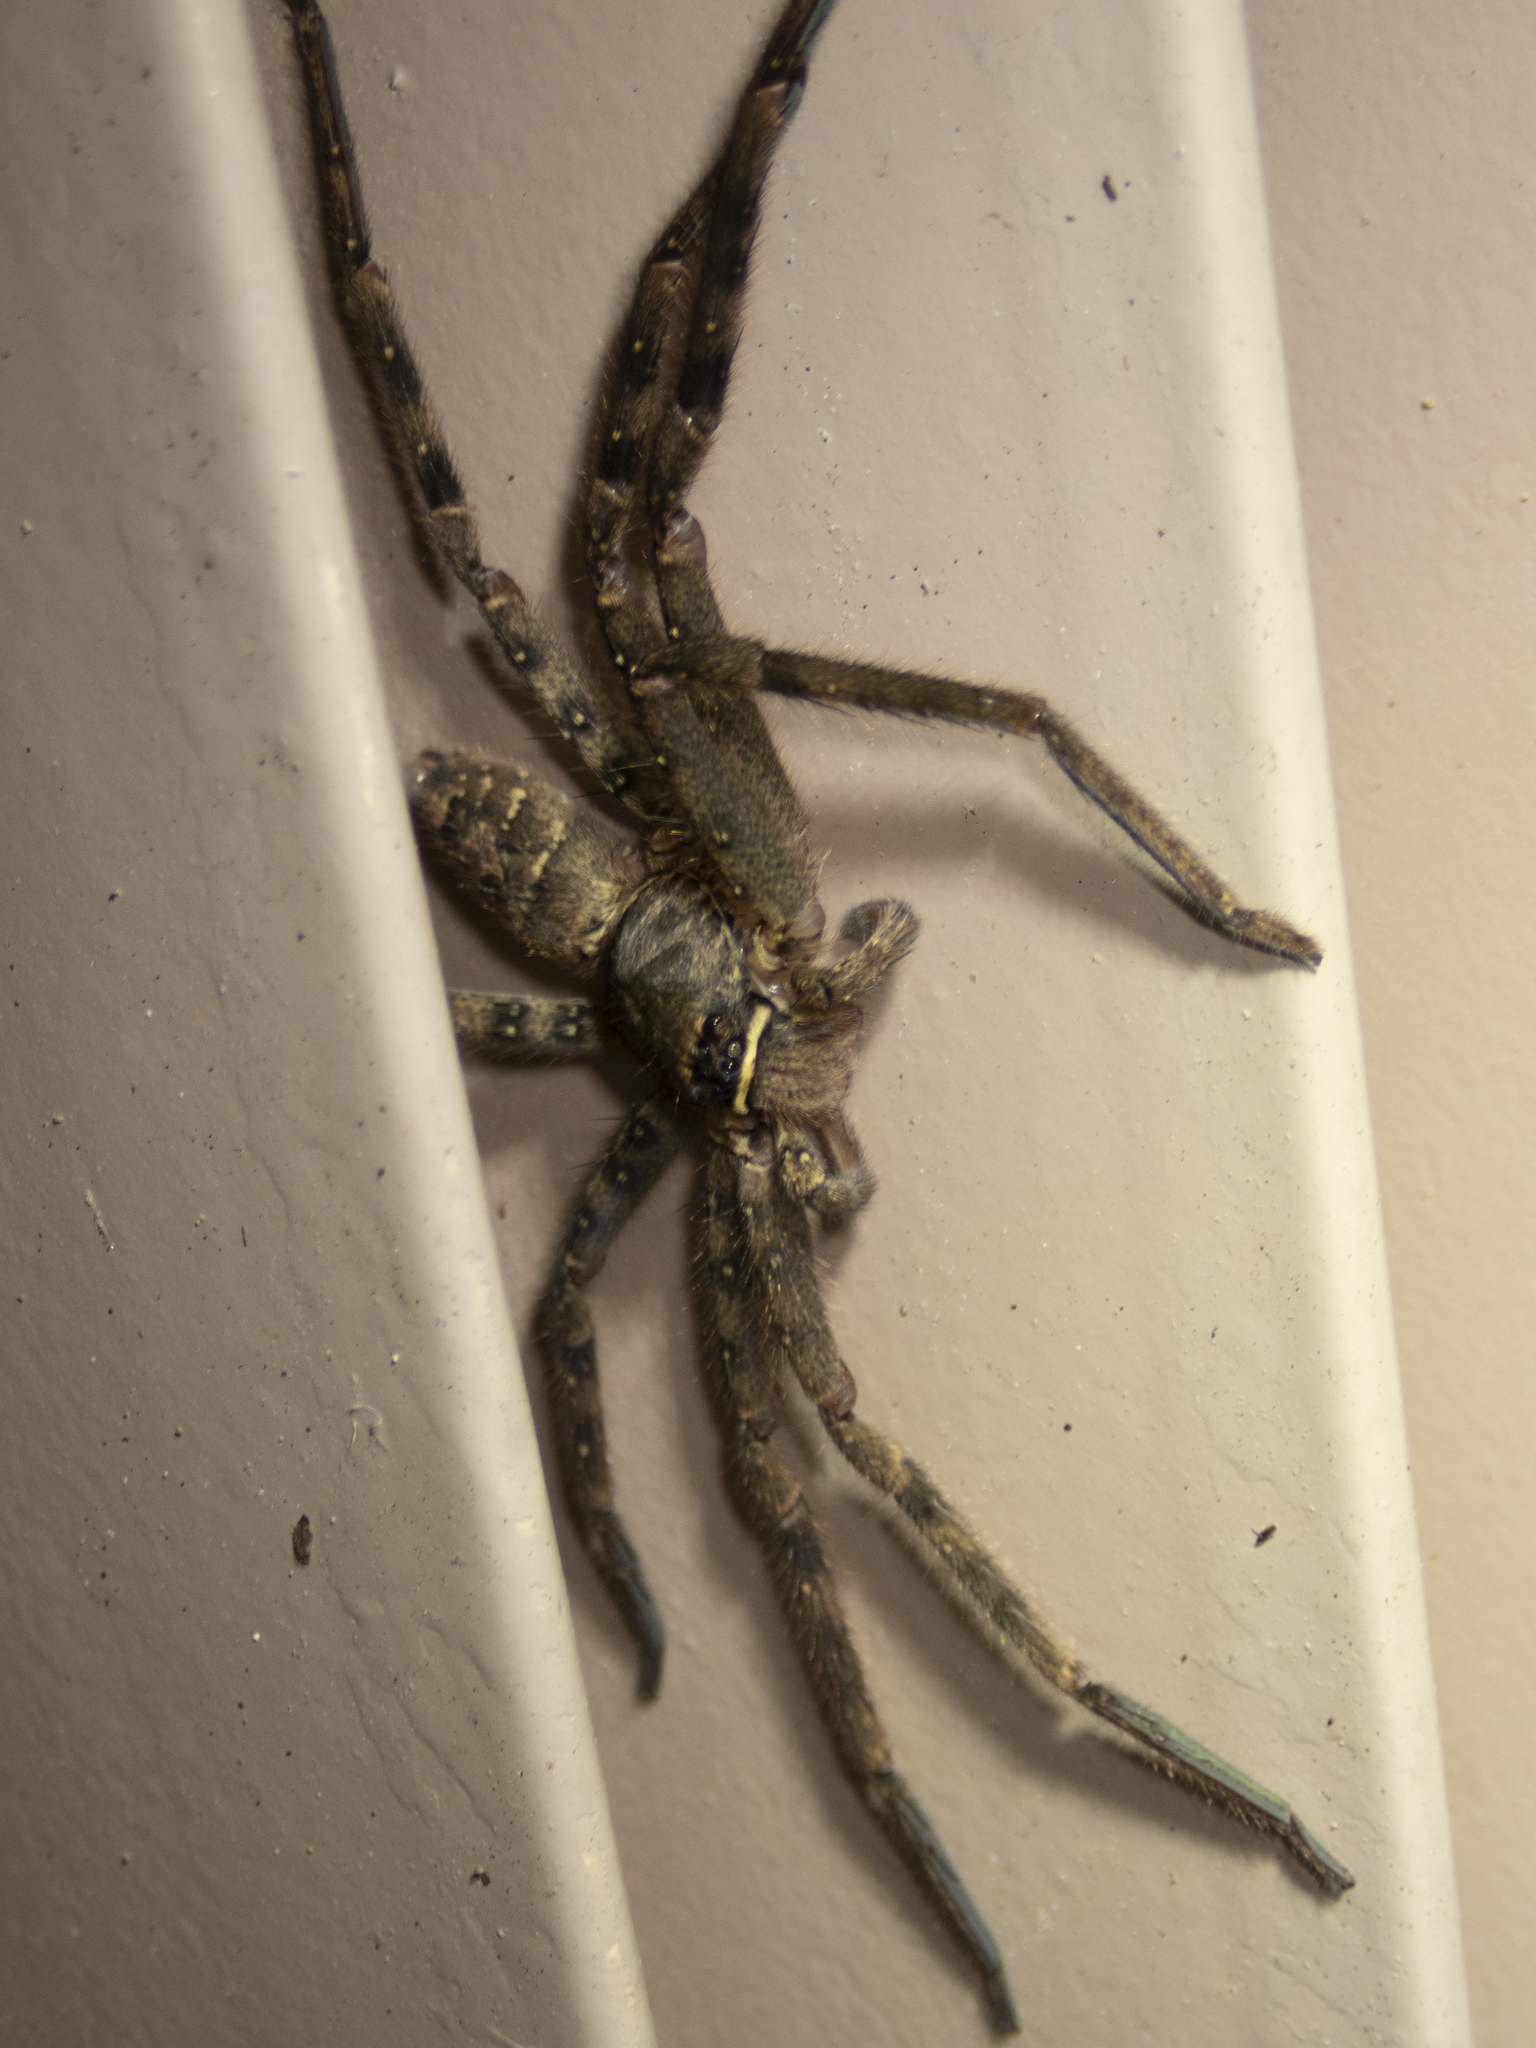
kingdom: Animalia
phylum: Arthropoda
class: Arachnida
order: Araneae
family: Sparassidae
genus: Heteropoda
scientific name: Heteropoda venatoria
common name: Huntsman spider
